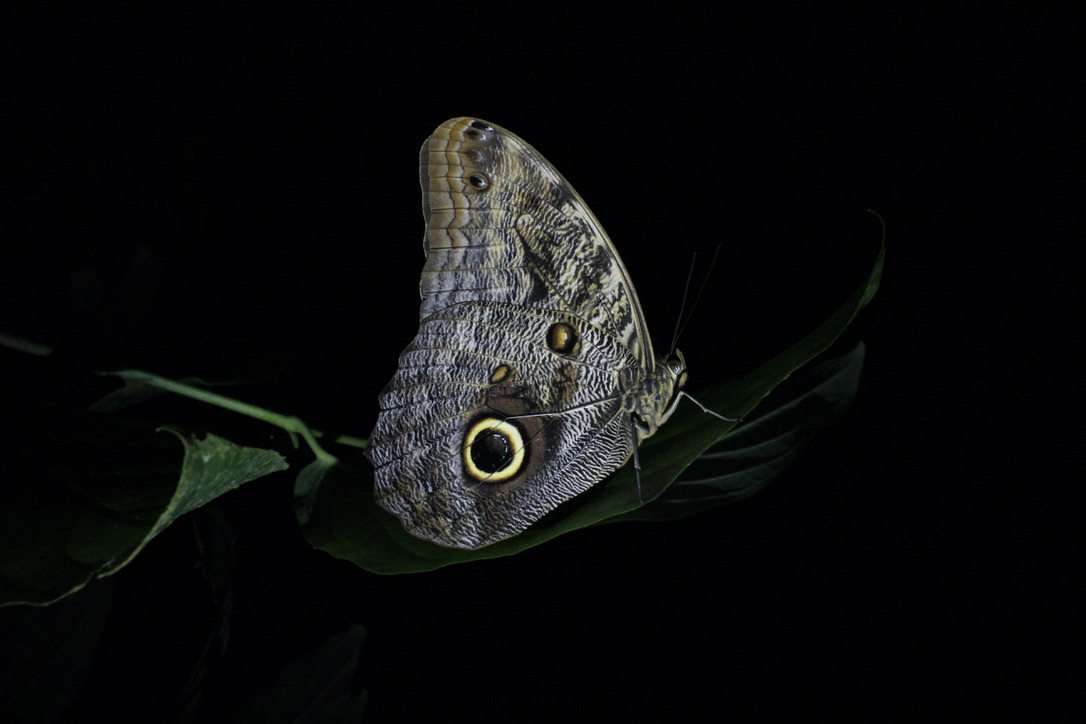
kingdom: Animalia
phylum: Arthropoda
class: Insecta
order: Lepidoptera
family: Nymphalidae
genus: Caligo
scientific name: Caligo brasiliensis
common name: Dark owl-butterfly
